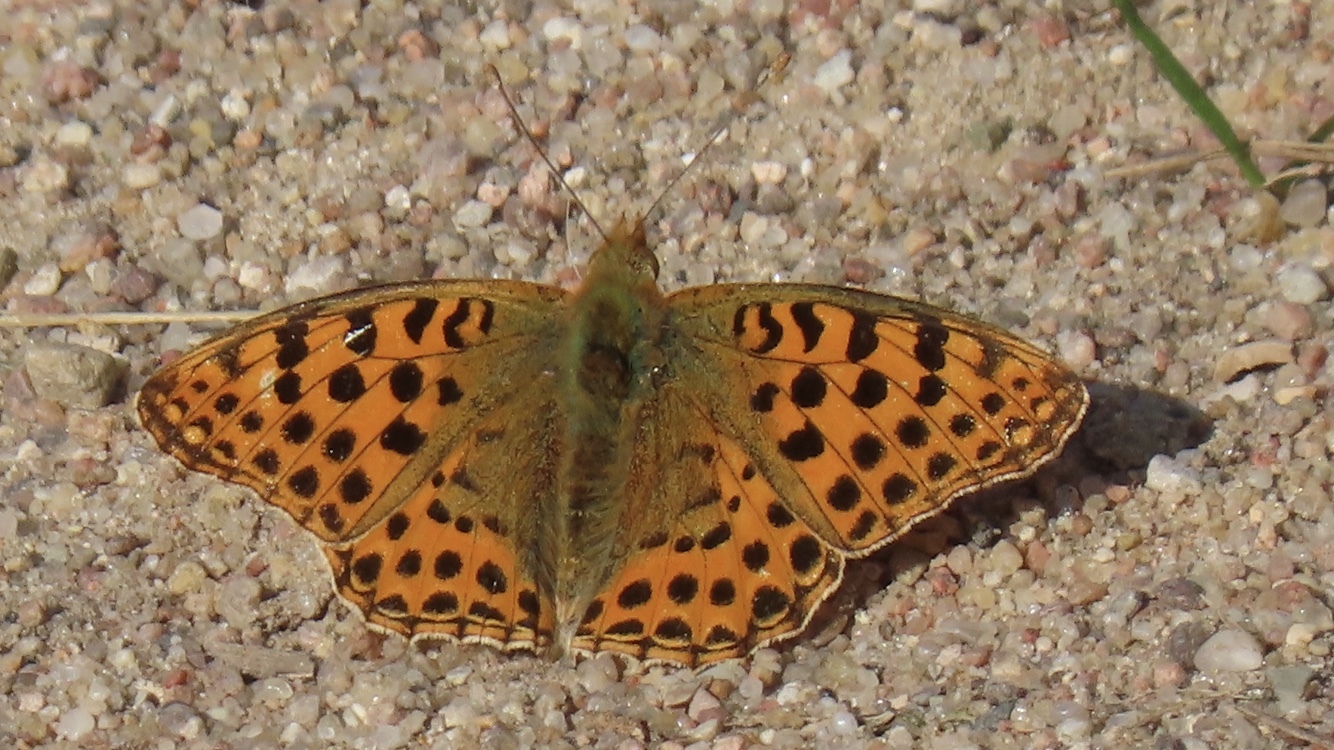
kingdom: Animalia
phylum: Arthropoda
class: Insecta
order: Lepidoptera
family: Nymphalidae
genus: Issoria
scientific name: Issoria lathonia
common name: Queen of spain fritillary
